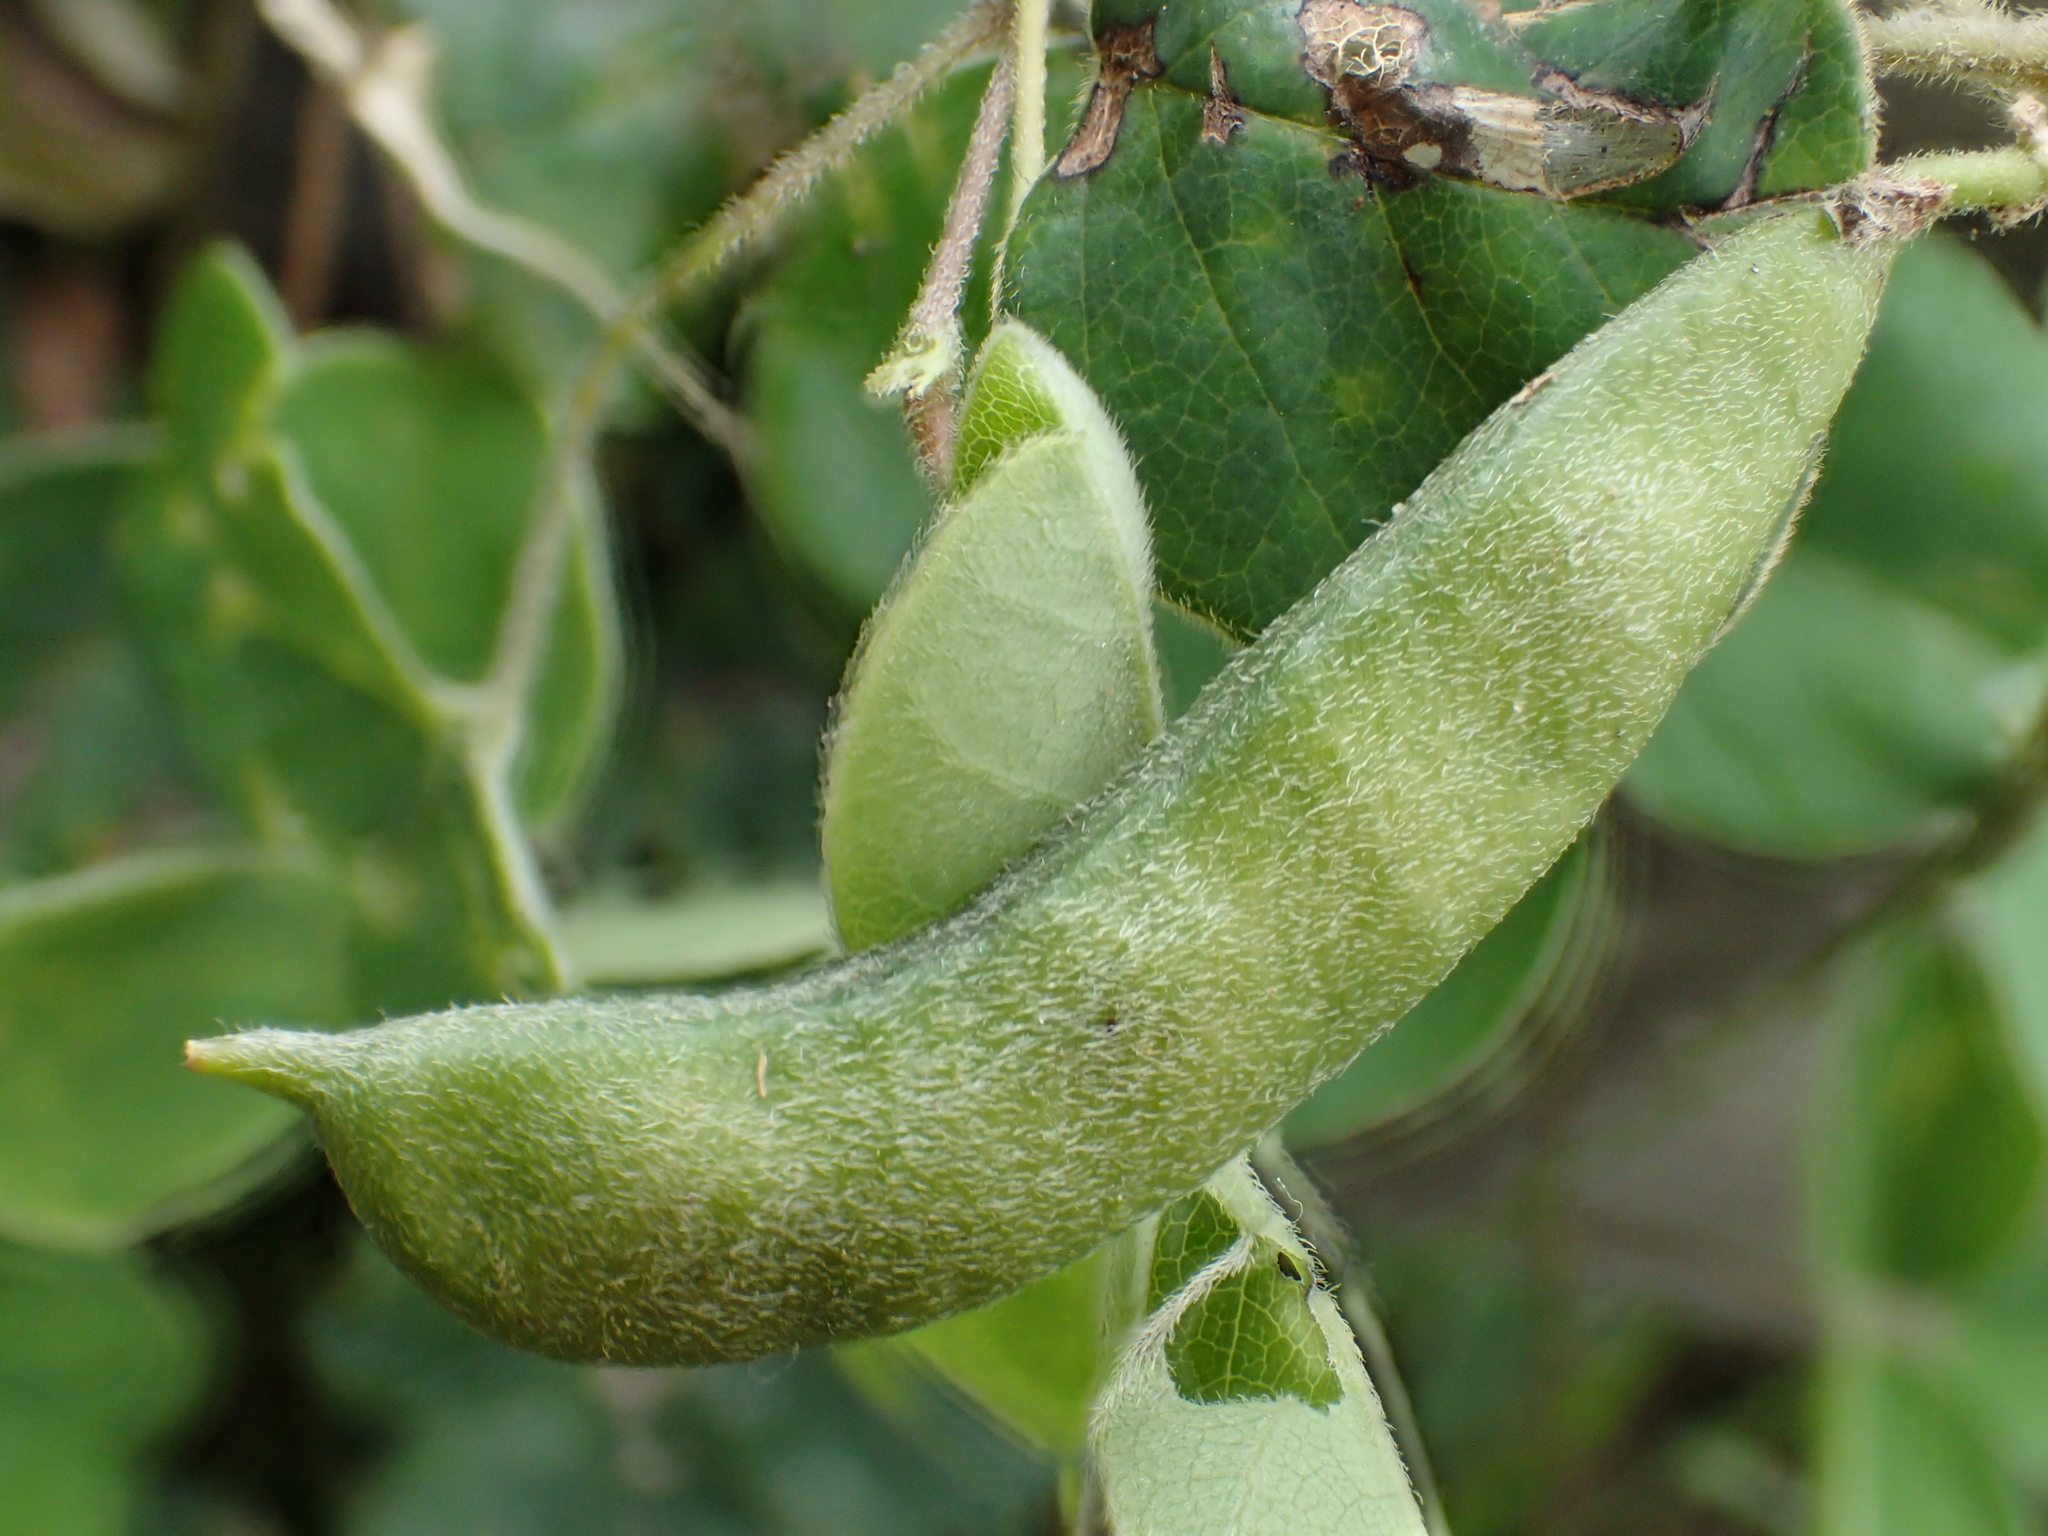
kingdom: Plantae
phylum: Tracheophyta
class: Magnoliopsida
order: Fabales
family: Fabaceae
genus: Galactia
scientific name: Galactia tashiroi
